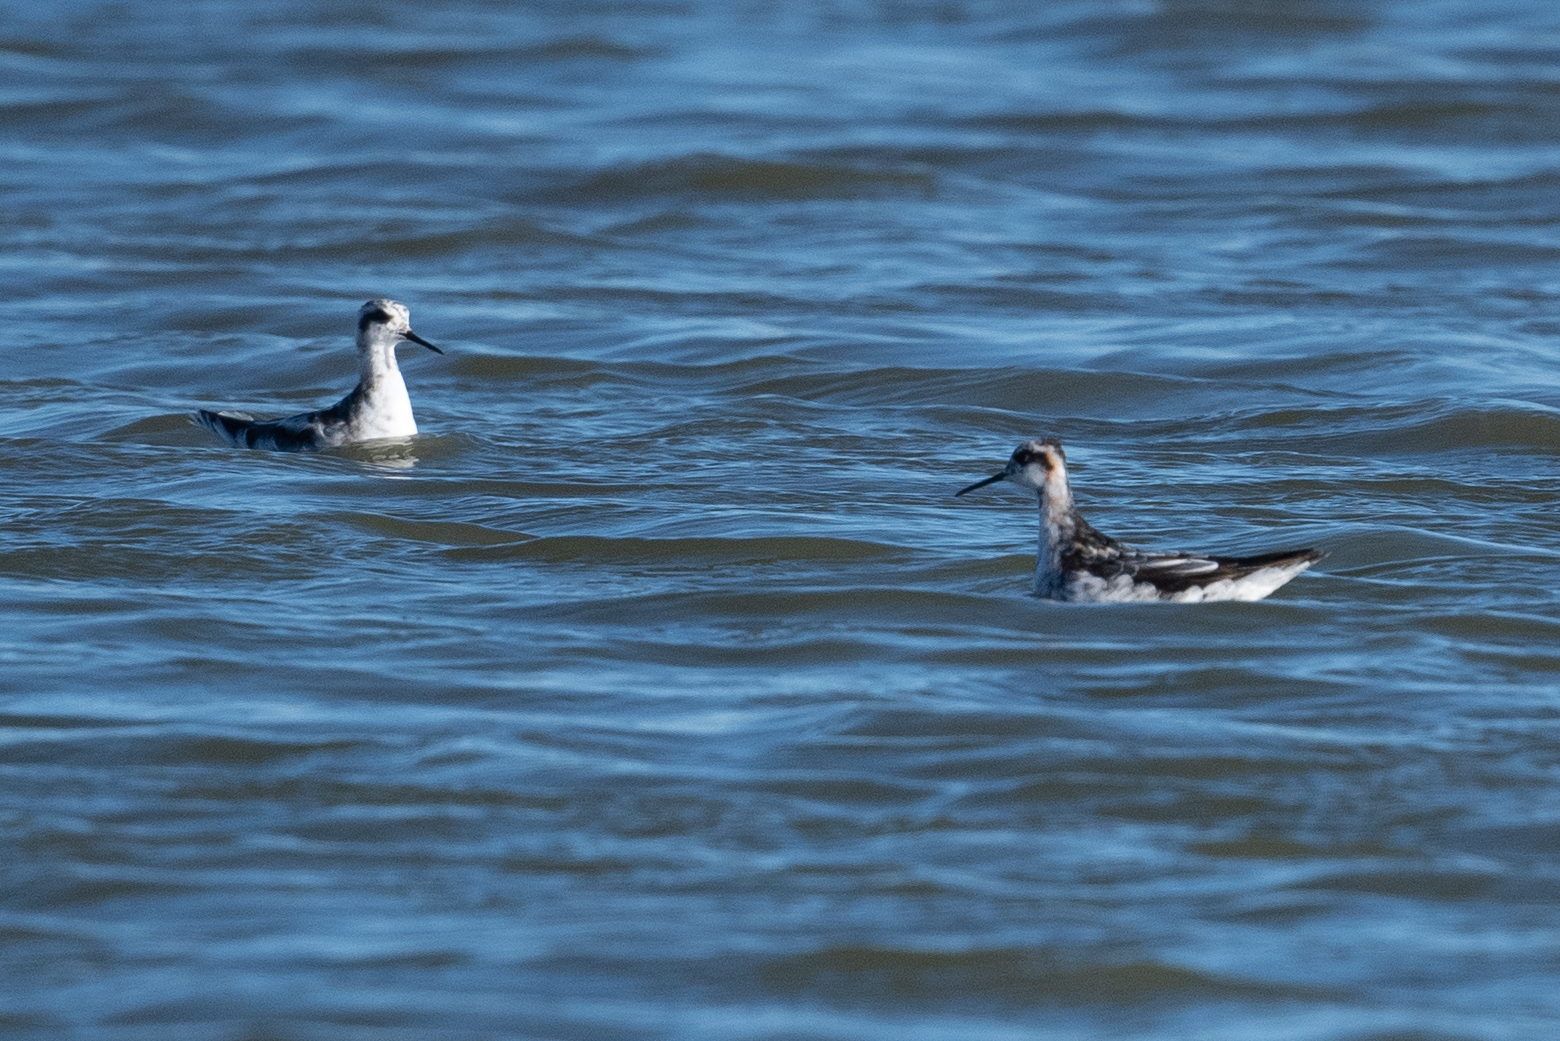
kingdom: Animalia
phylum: Chordata
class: Aves
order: Charadriiformes
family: Scolopacidae
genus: Phalaropus
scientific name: Phalaropus lobatus
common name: Red-necked phalarope
